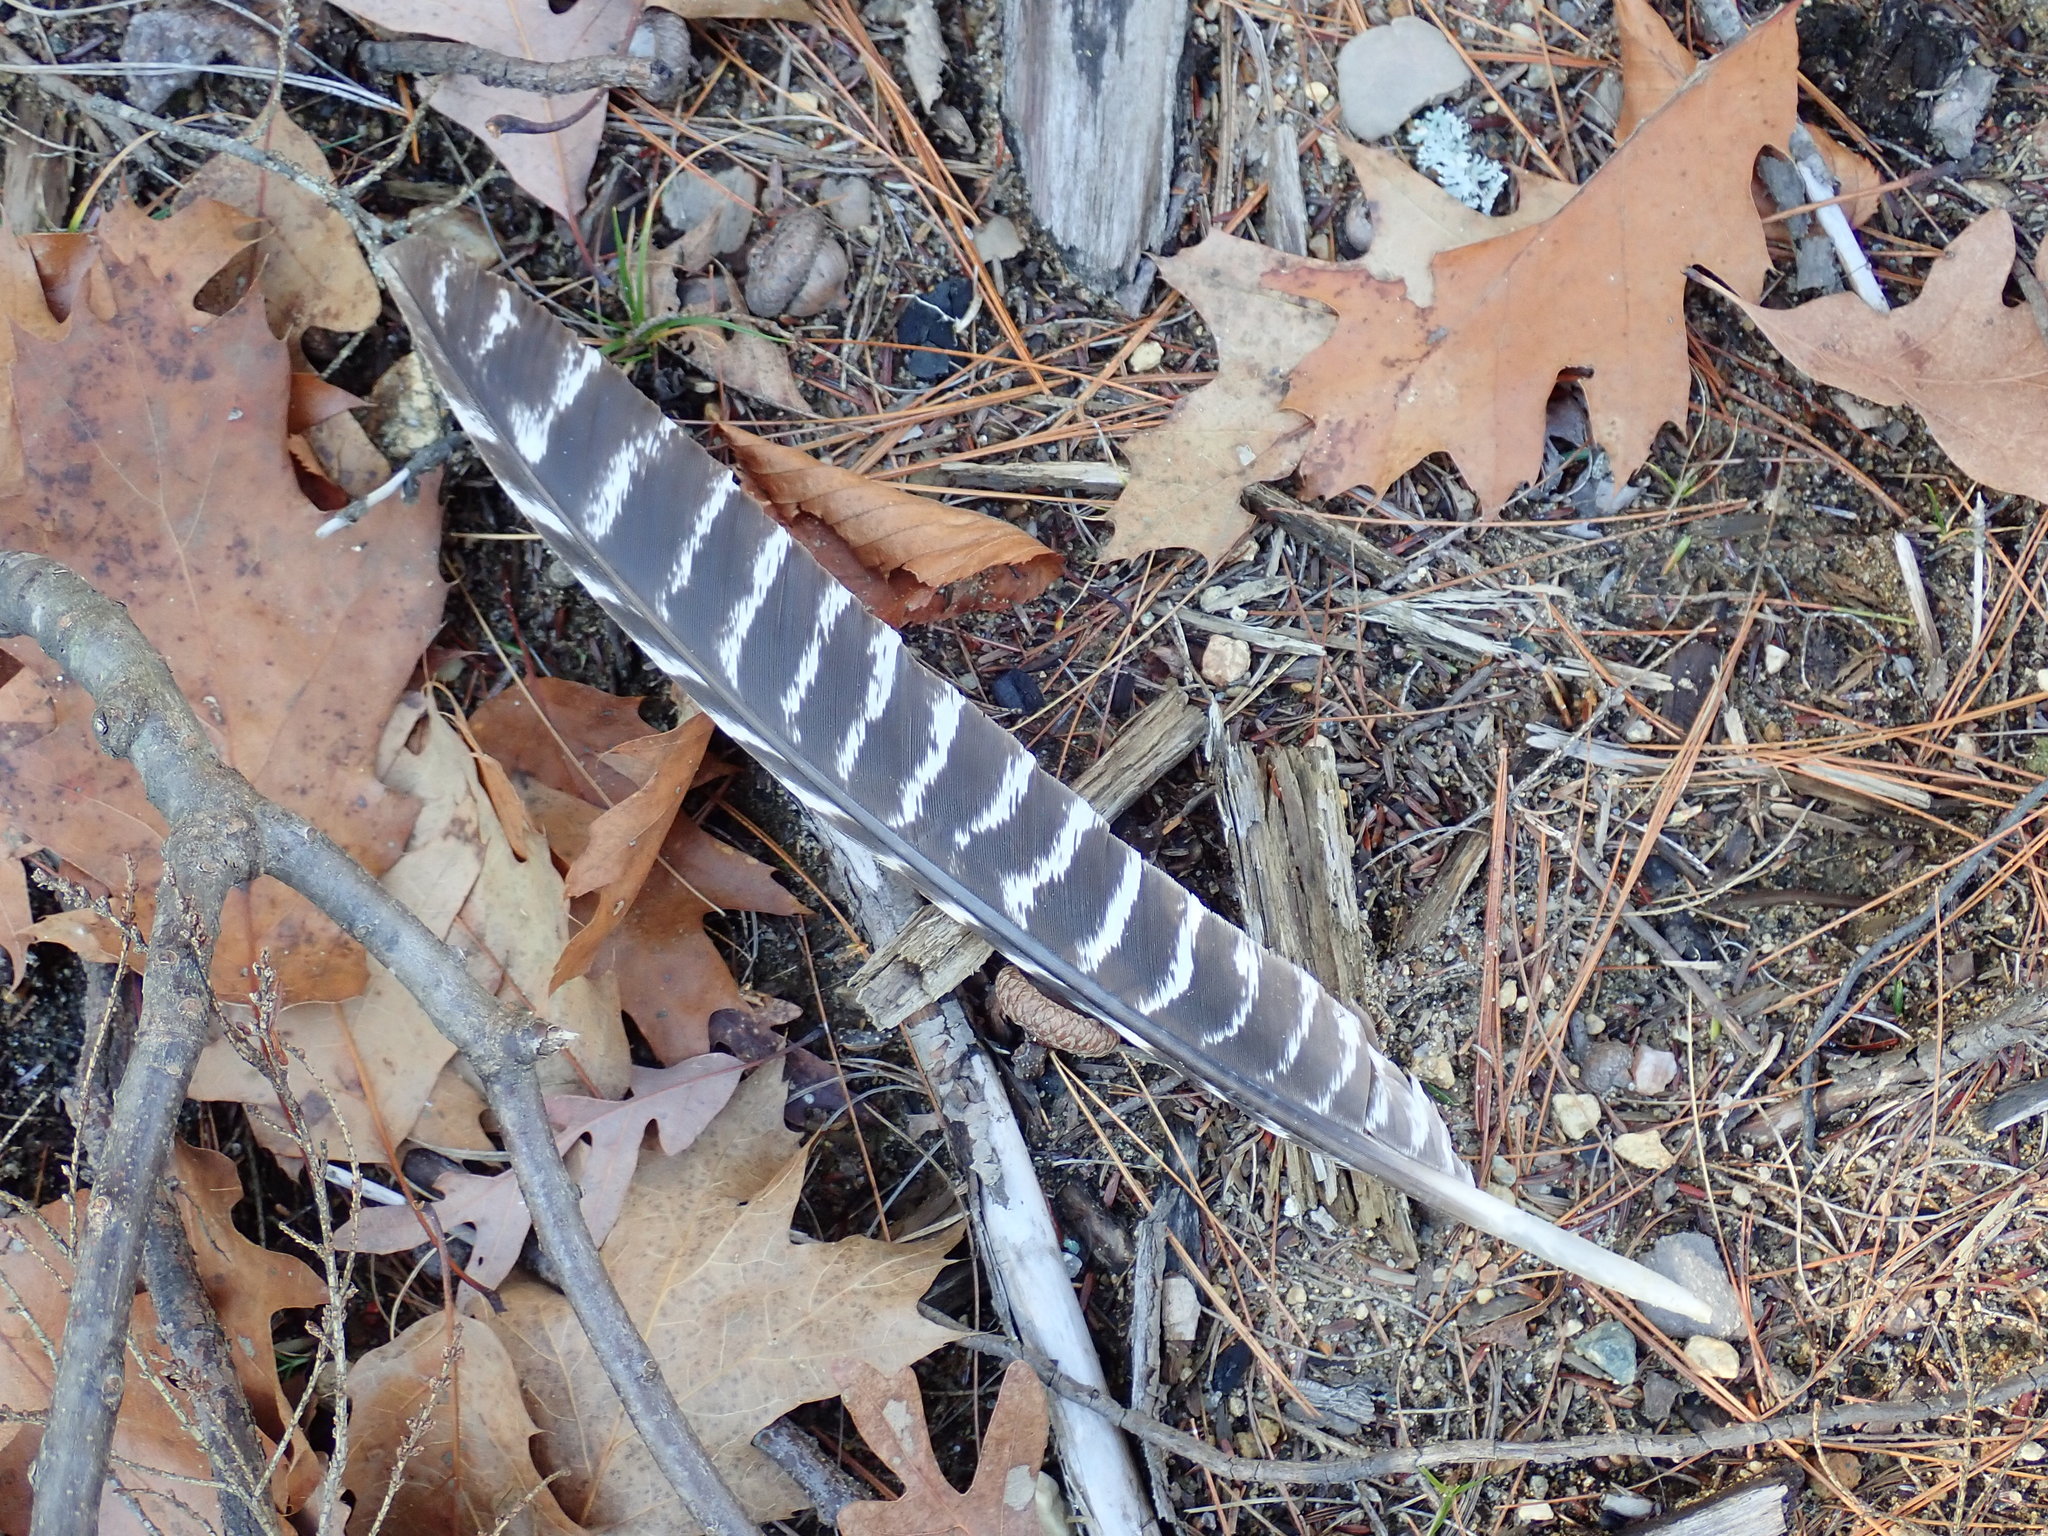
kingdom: Animalia
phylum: Chordata
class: Aves
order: Galliformes
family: Phasianidae
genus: Meleagris
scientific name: Meleagris gallopavo
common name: Wild turkey
